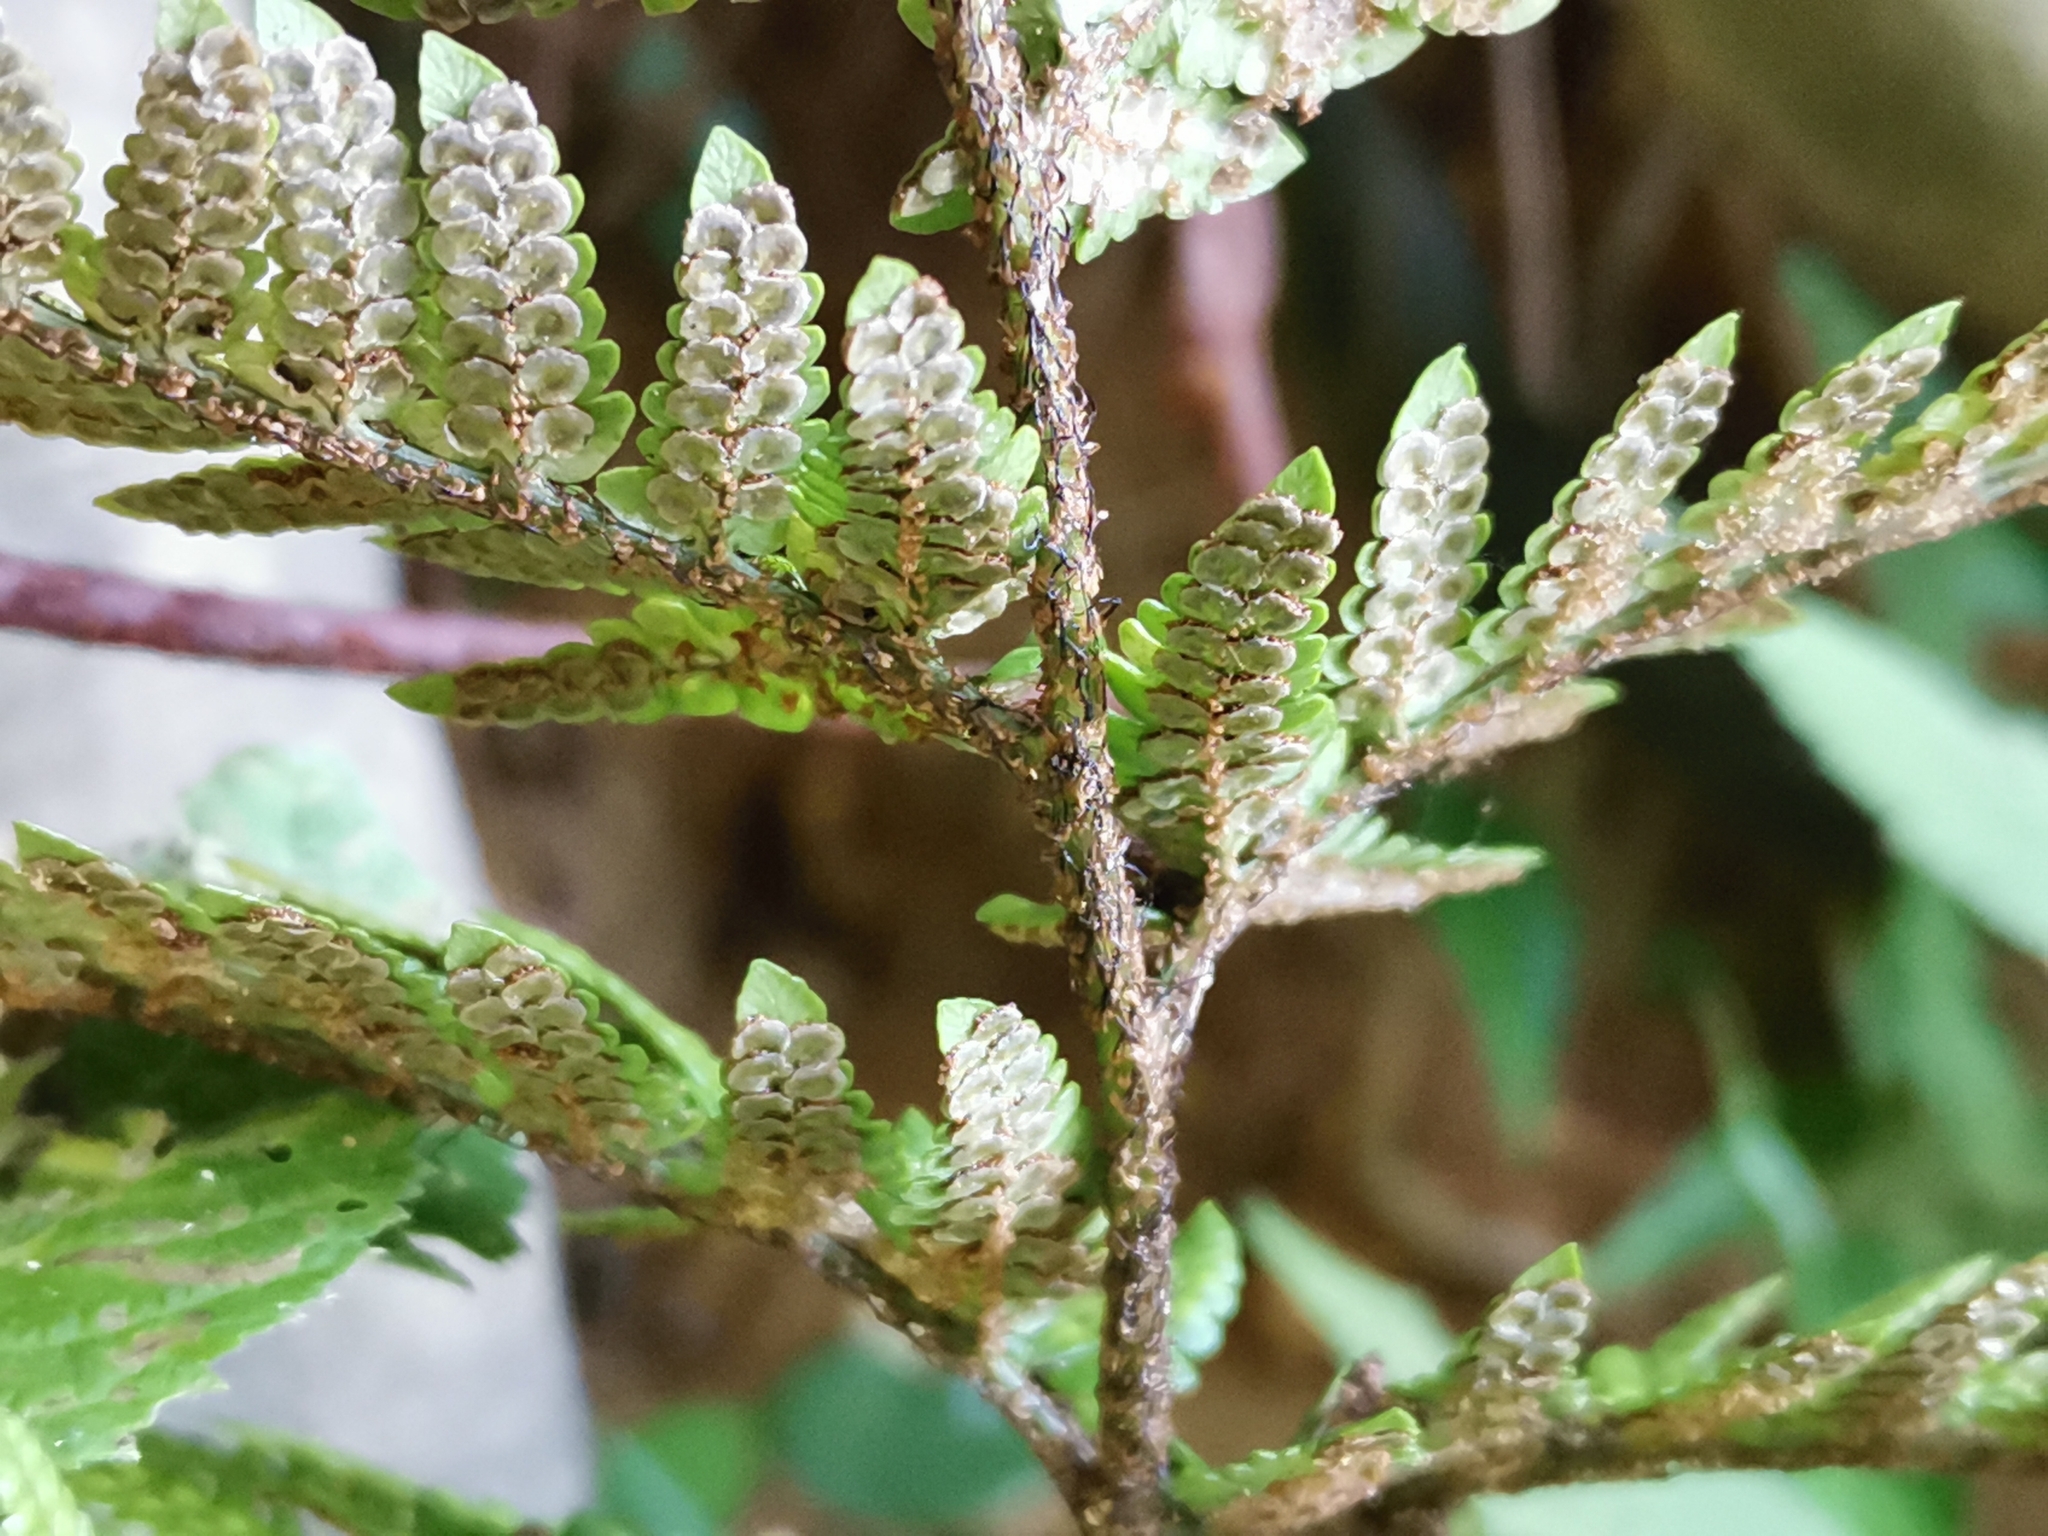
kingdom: Plantae
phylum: Tracheophyta
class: Polypodiopsida
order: Polypodiales
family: Dryopteridaceae
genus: Dryopteris
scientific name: Dryopteris bissetiana
